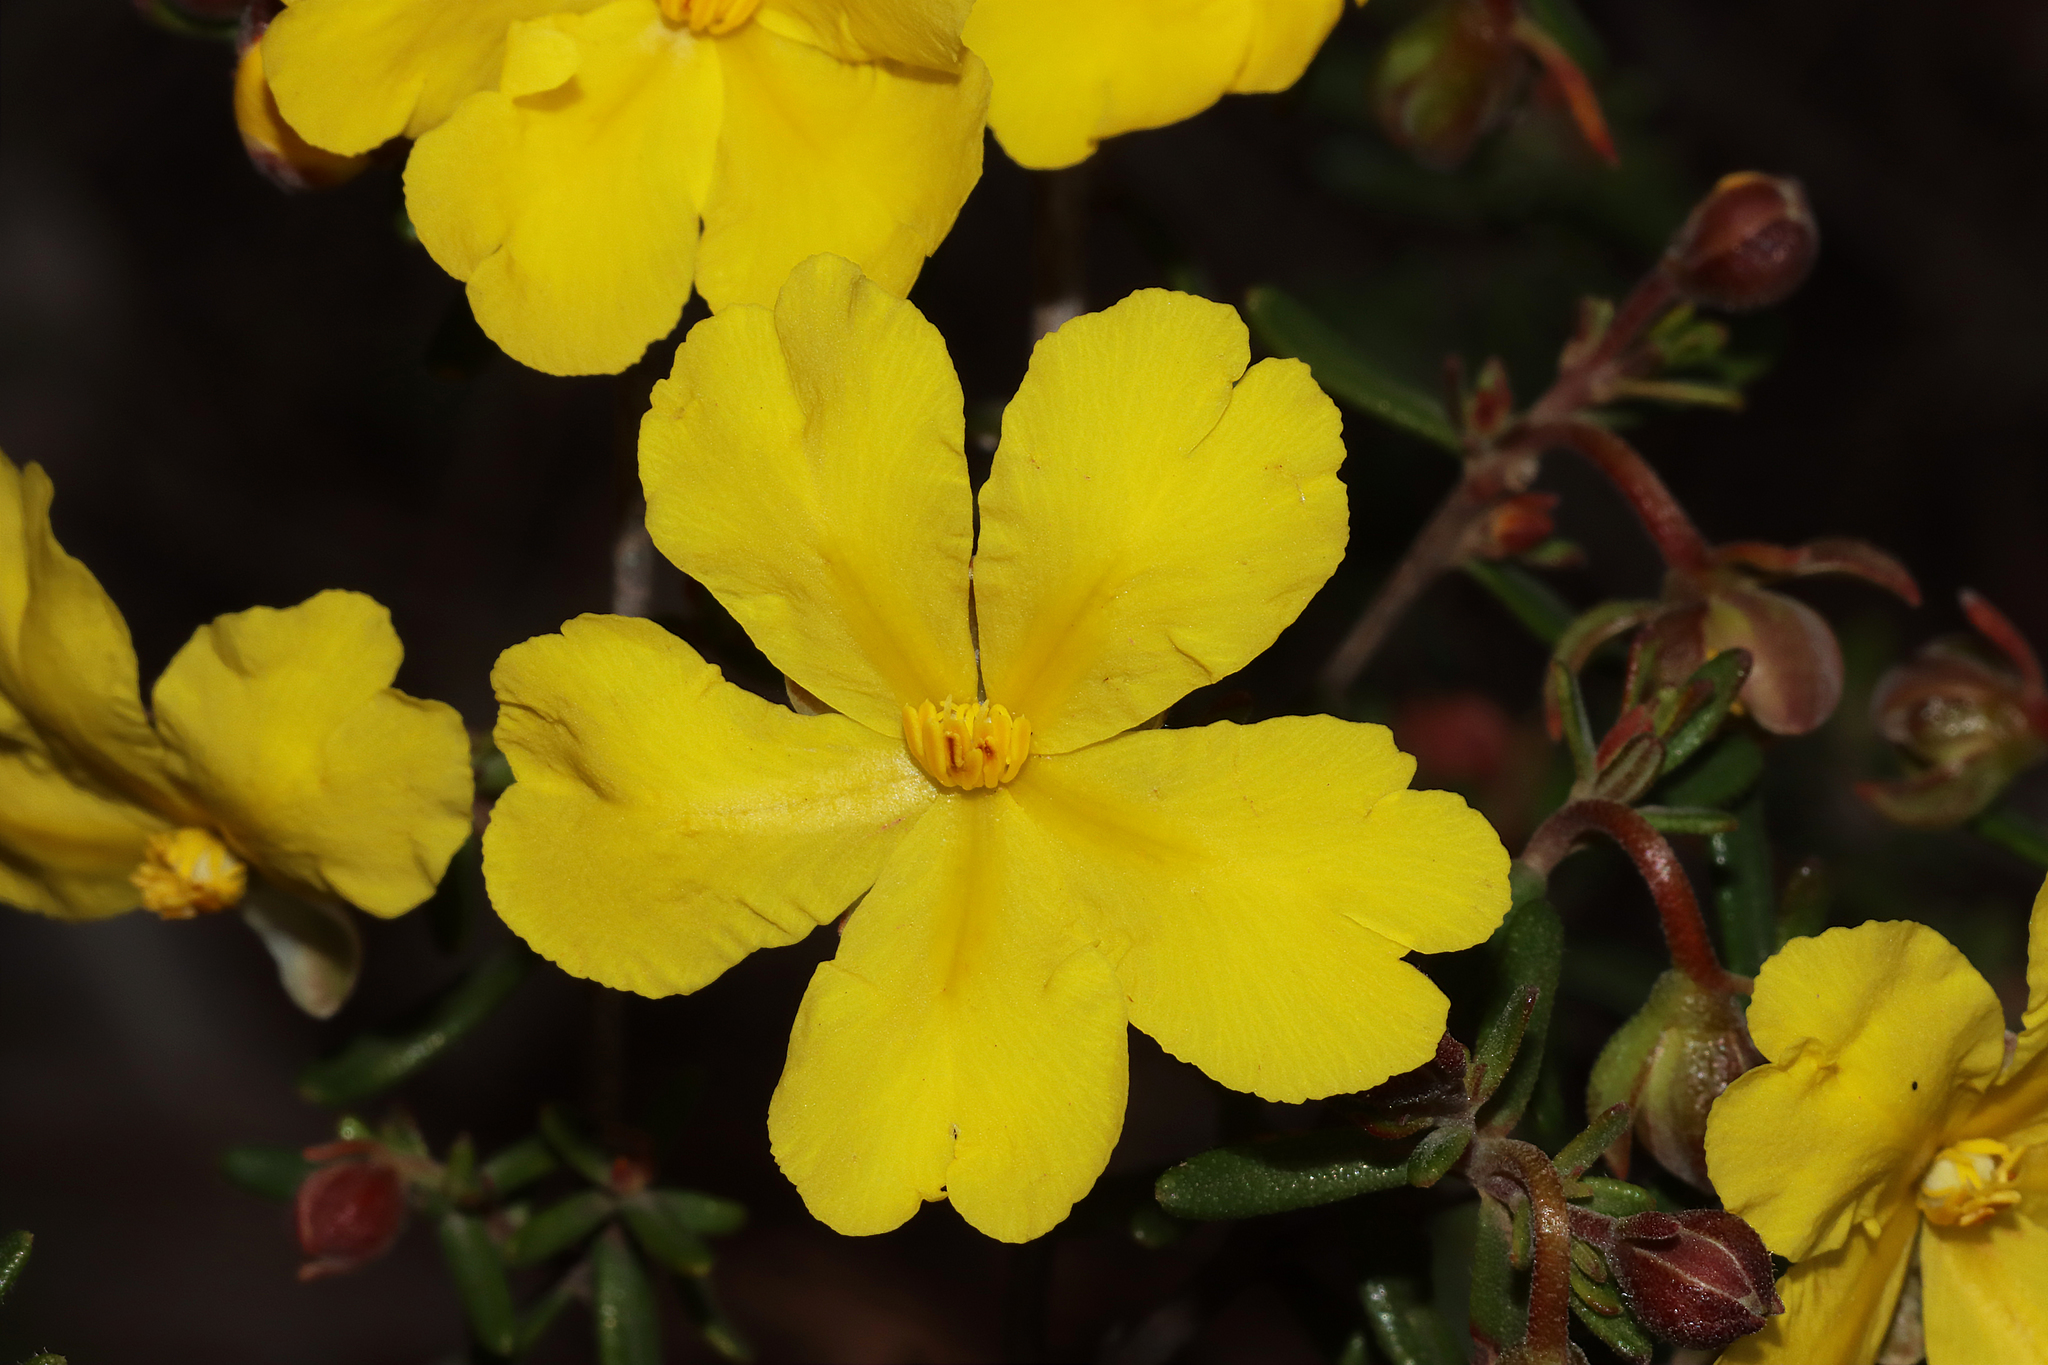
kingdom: Plantae
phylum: Tracheophyta
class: Magnoliopsida
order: Dilleniales
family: Dilleniaceae
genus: Hibbertia
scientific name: Hibbertia hypericoides
